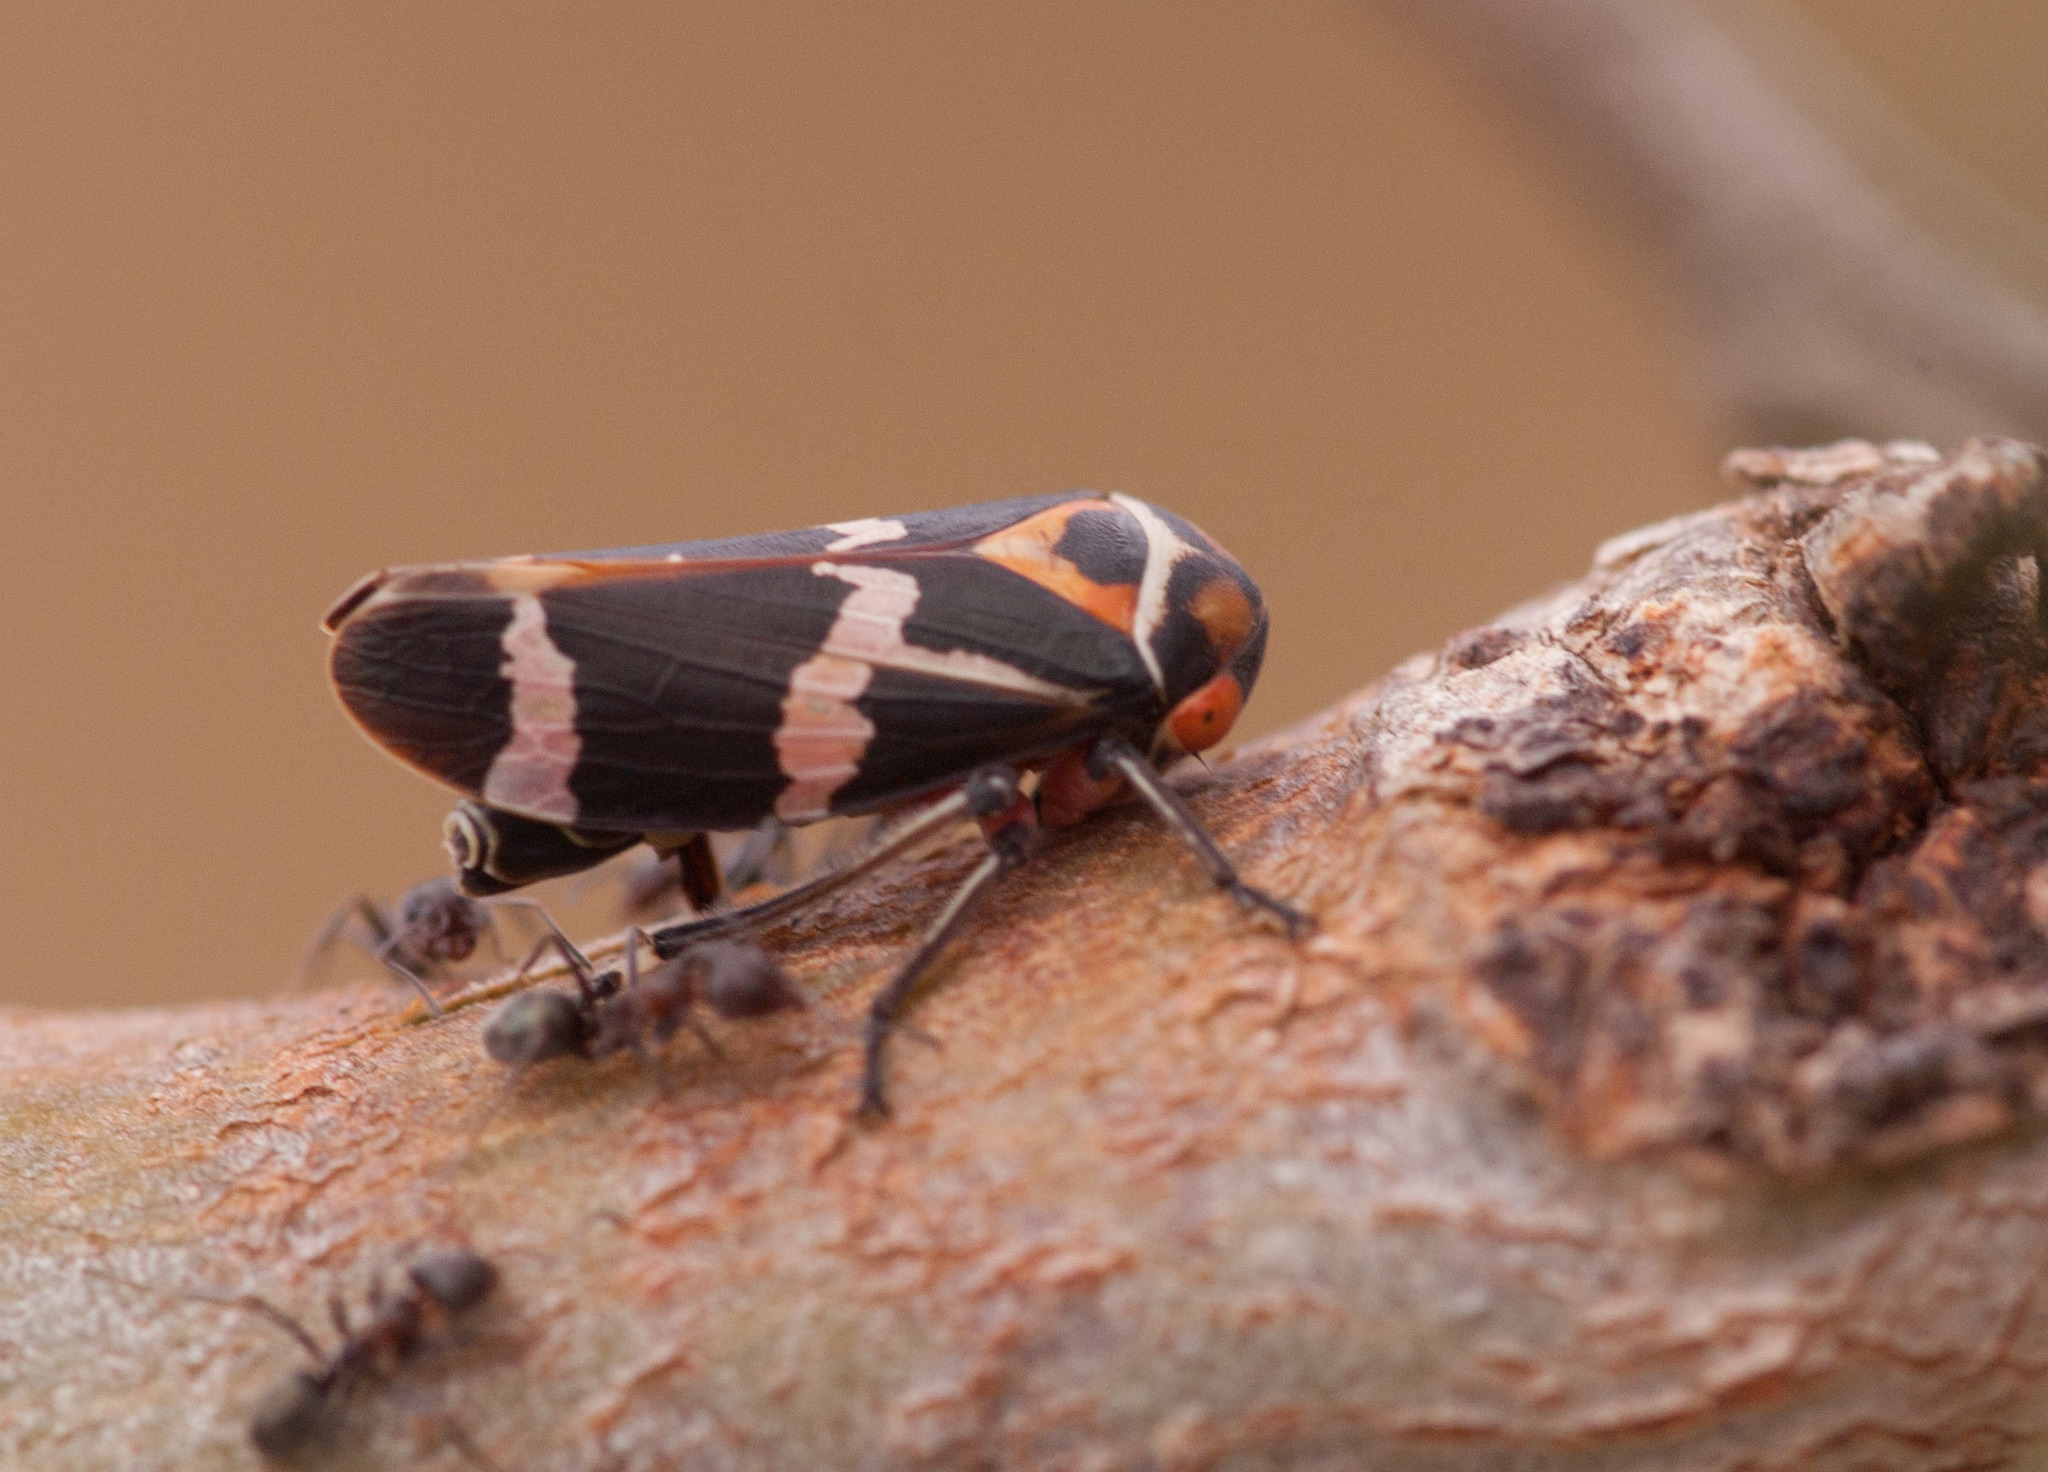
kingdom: Animalia
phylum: Arthropoda
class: Insecta
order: Hemiptera
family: Cicadellidae
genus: Eurymeloides
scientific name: Eurymeloides pulchra
